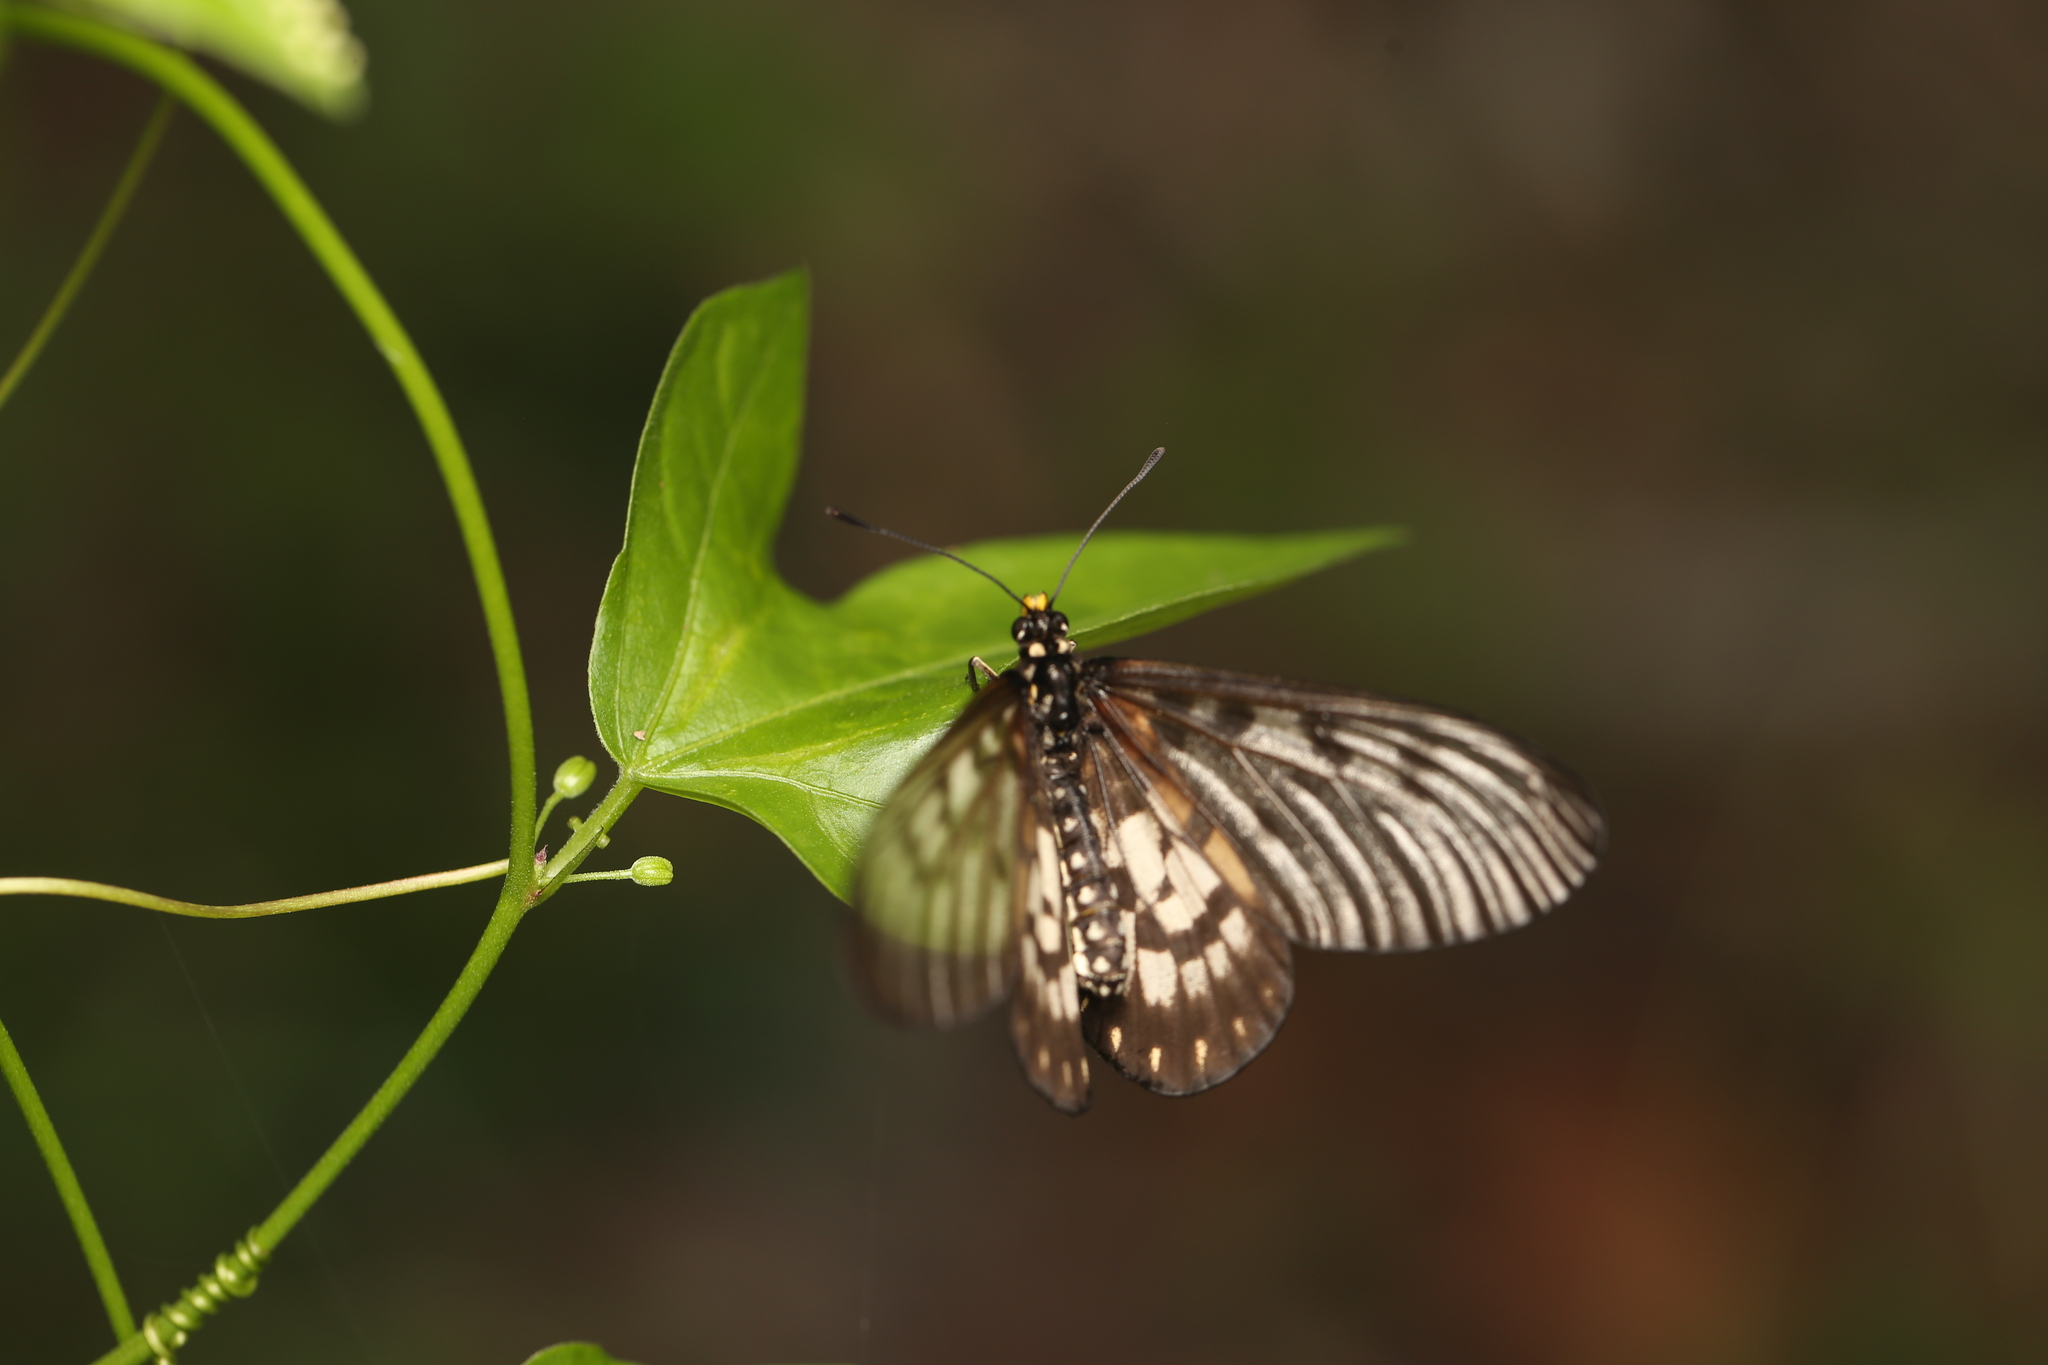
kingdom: Animalia
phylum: Arthropoda
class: Insecta
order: Lepidoptera
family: Nymphalidae
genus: Acraea
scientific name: Acraea andromacha
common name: Glasswing
